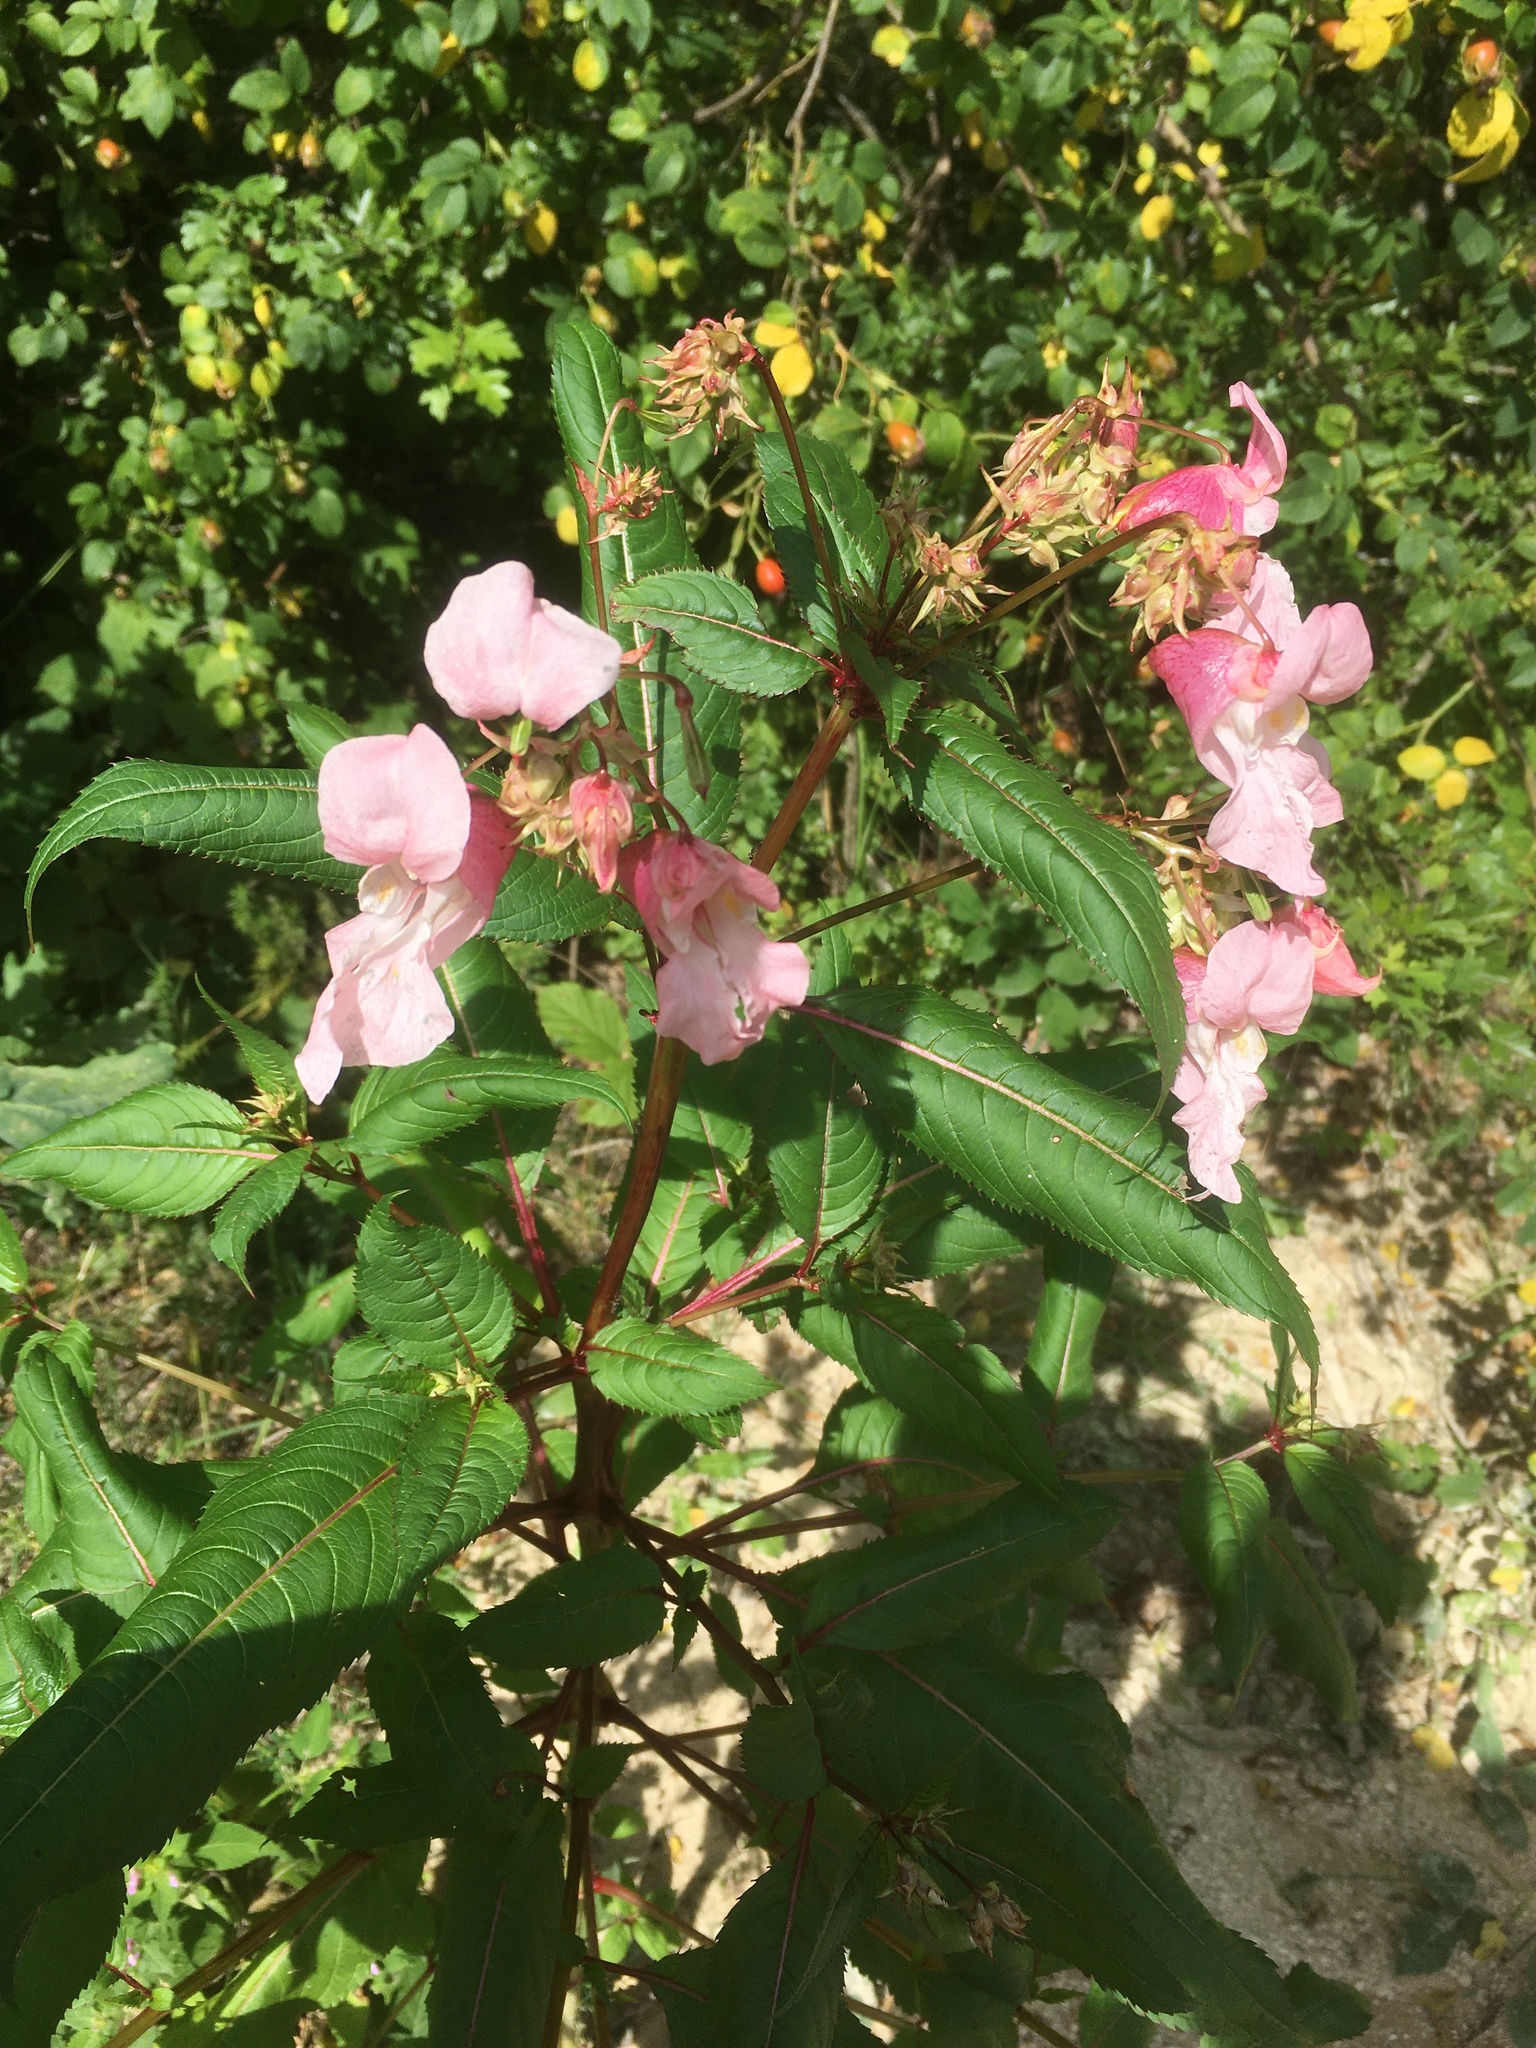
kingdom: Plantae
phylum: Tracheophyta
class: Magnoliopsida
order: Ericales
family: Balsaminaceae
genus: Impatiens
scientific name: Impatiens glandulifera
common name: Himalayan balsam
